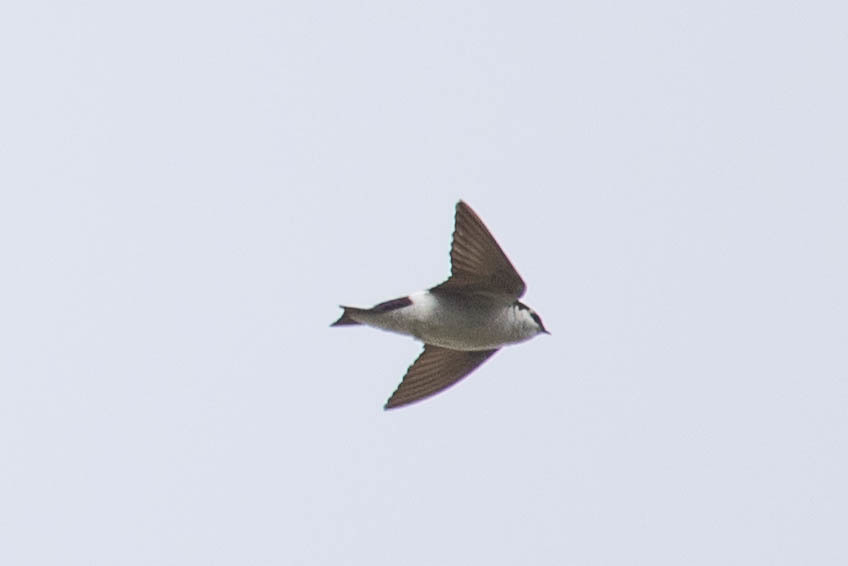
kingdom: Animalia
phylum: Chordata
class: Aves
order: Passeriformes
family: Hirundinidae
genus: Tachycineta
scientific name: Tachycineta thalassina
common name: Violet-green swallow
